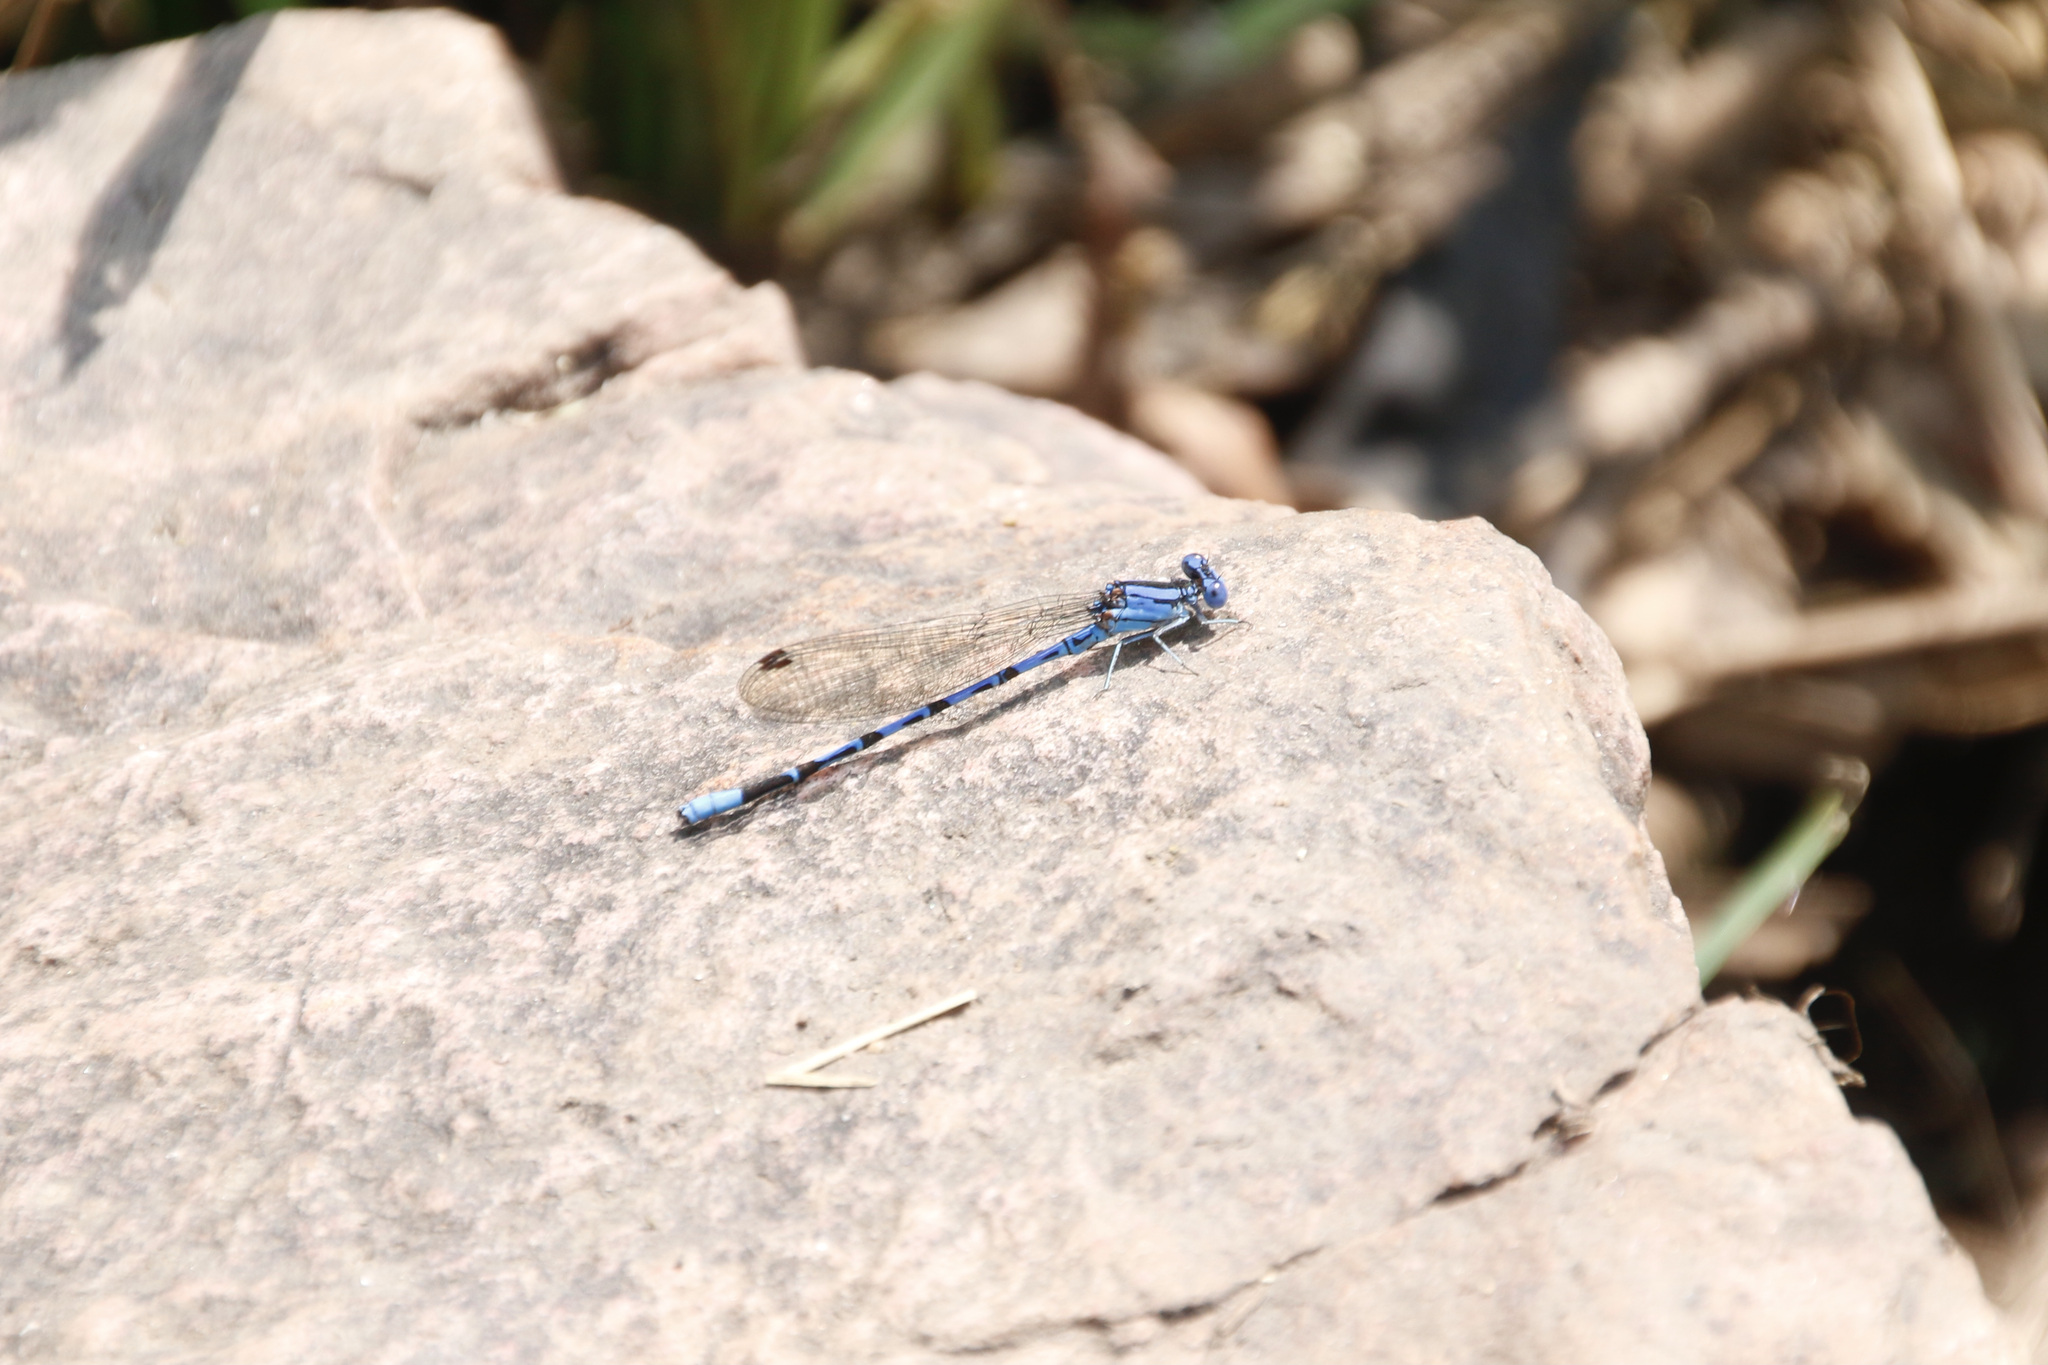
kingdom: Animalia
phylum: Arthropoda
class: Insecta
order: Odonata
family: Coenagrionidae
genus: Argia
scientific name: Argia funebris
